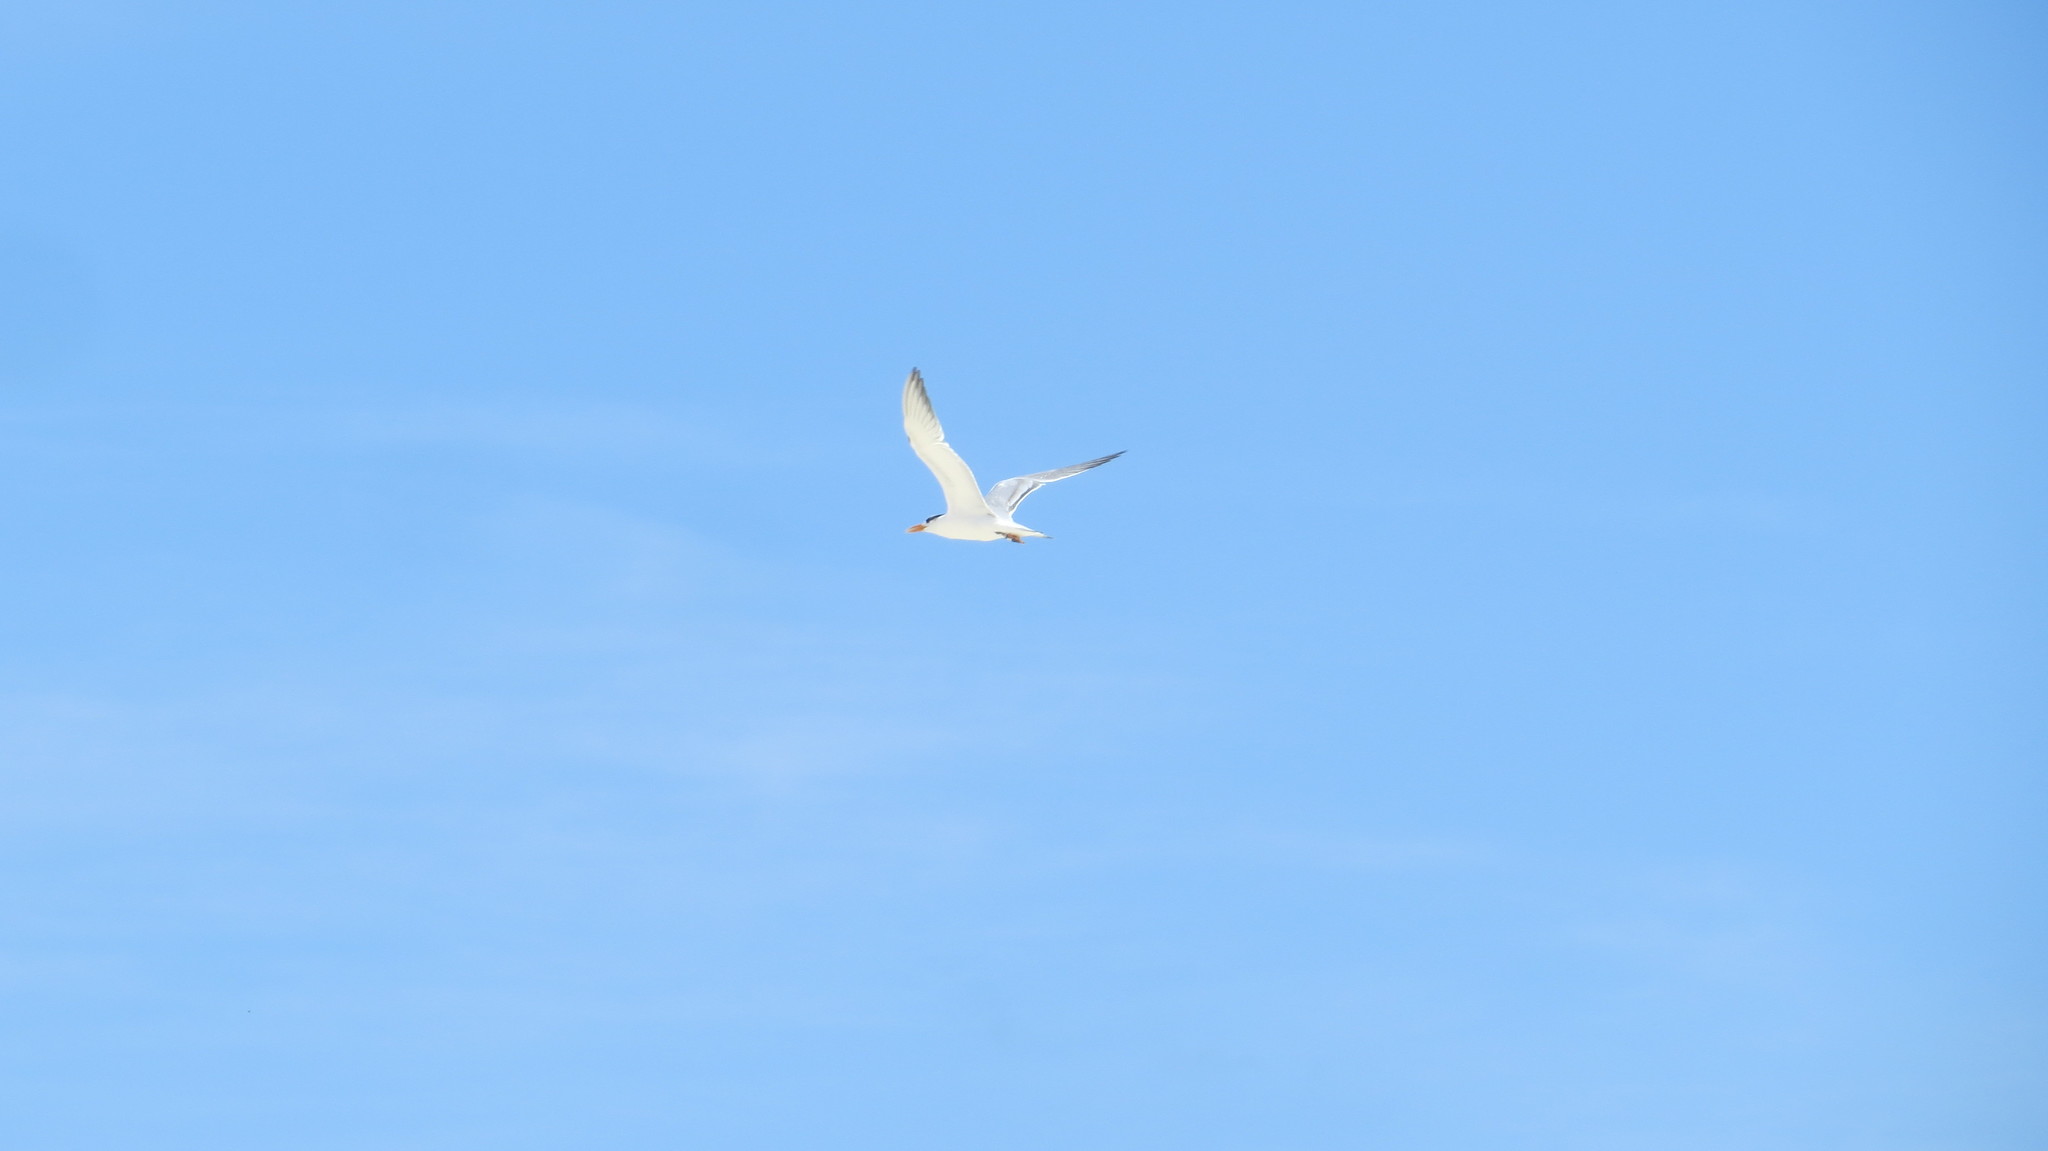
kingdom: Animalia
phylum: Chordata
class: Aves
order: Charadriiformes
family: Laridae
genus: Thalasseus
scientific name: Thalasseus maximus
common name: Royal tern
